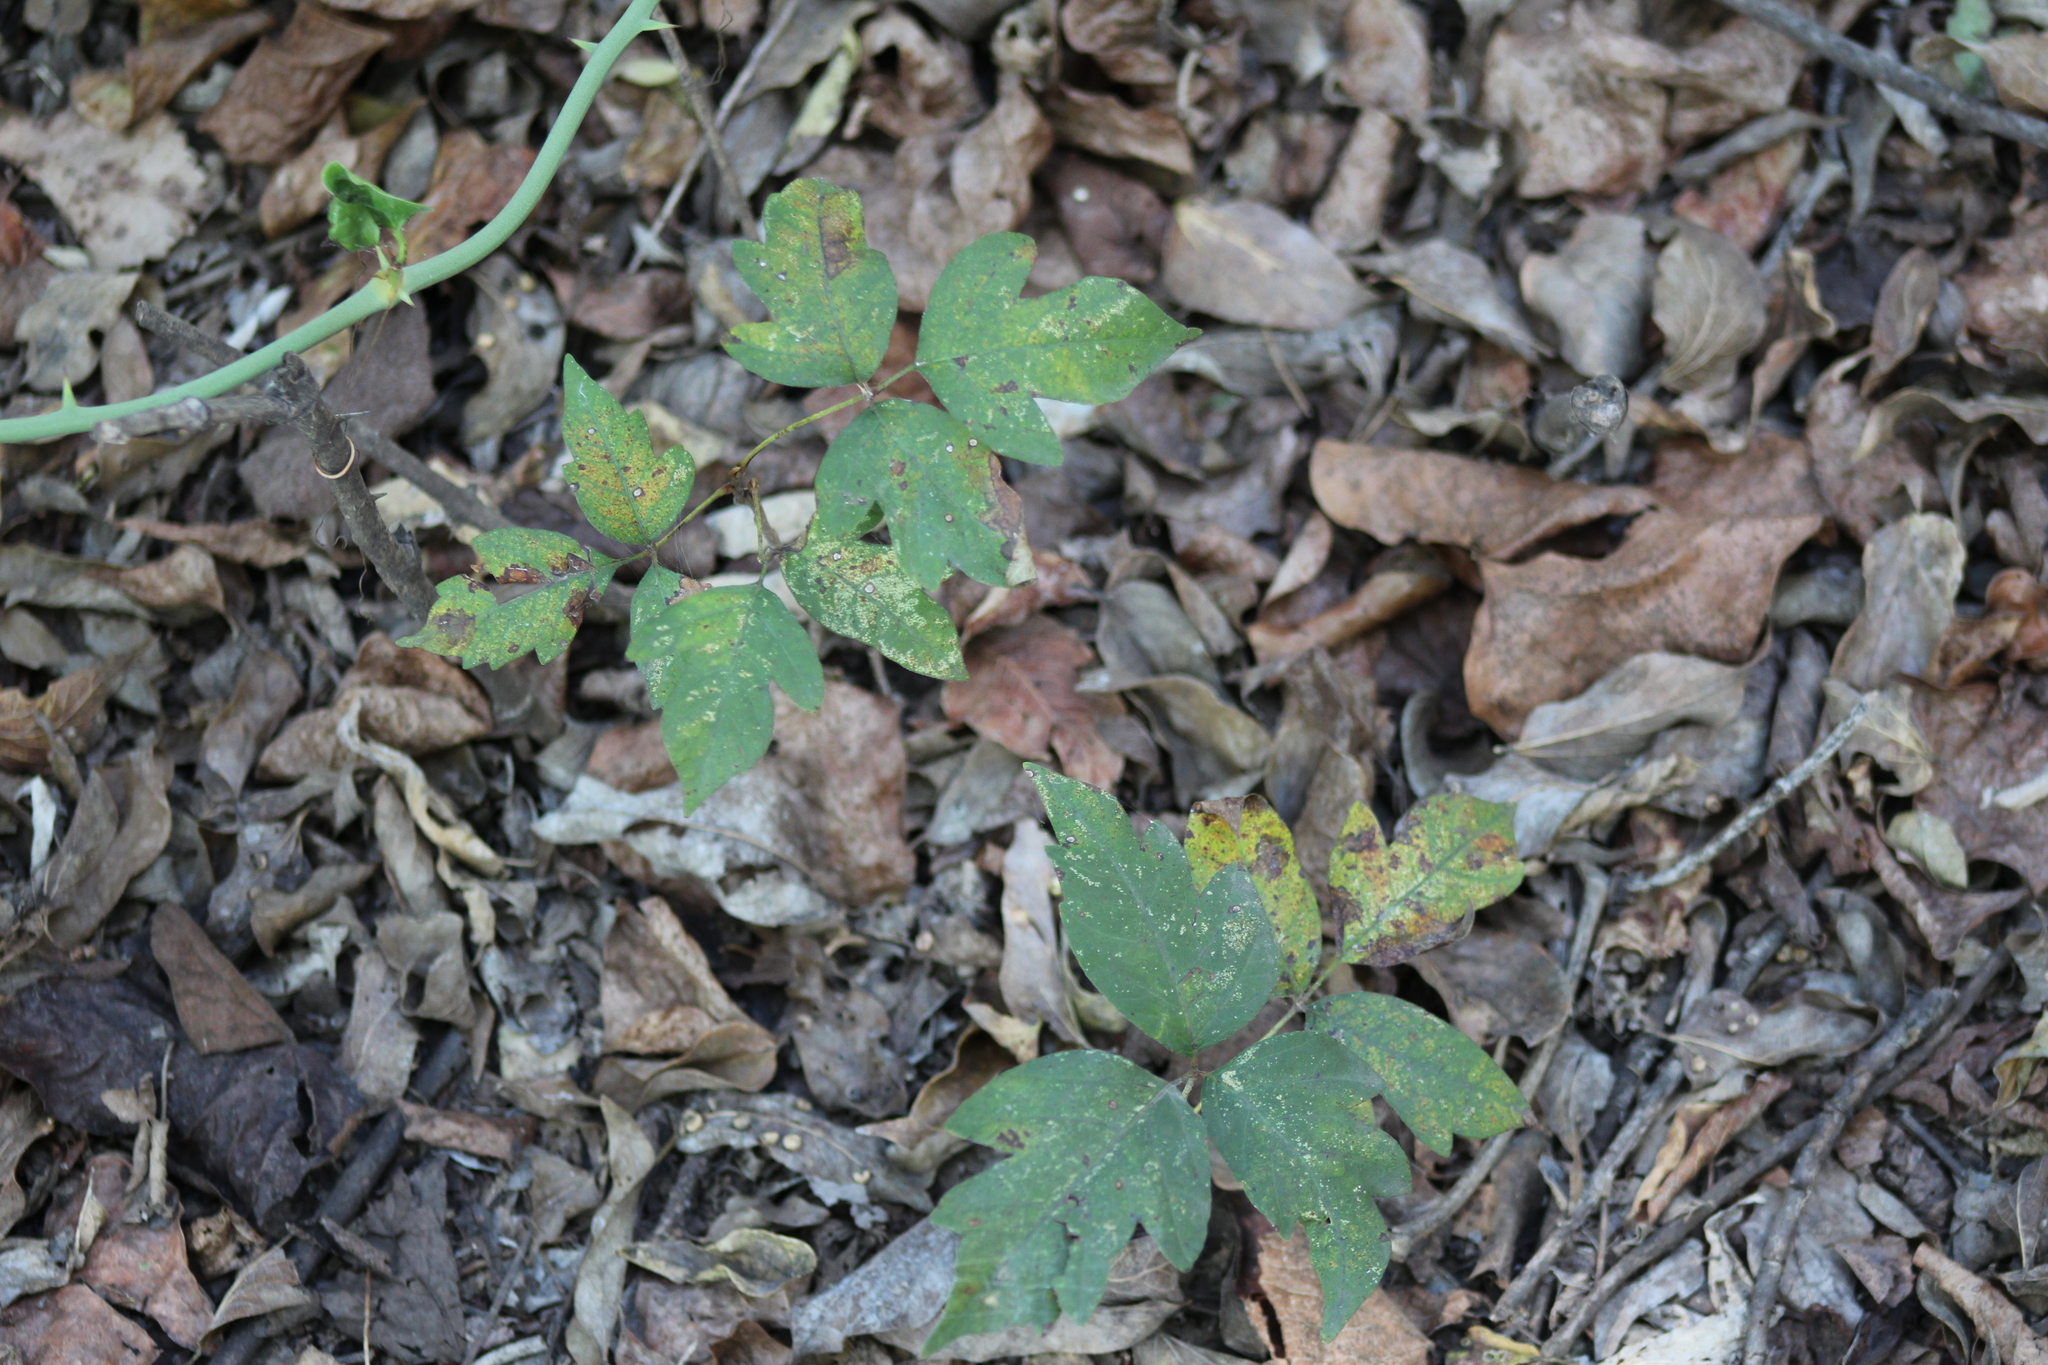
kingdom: Plantae
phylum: Tracheophyta
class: Magnoliopsida
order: Sapindales
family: Anacardiaceae
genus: Toxicodendron
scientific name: Toxicodendron radicans
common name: Poison ivy
